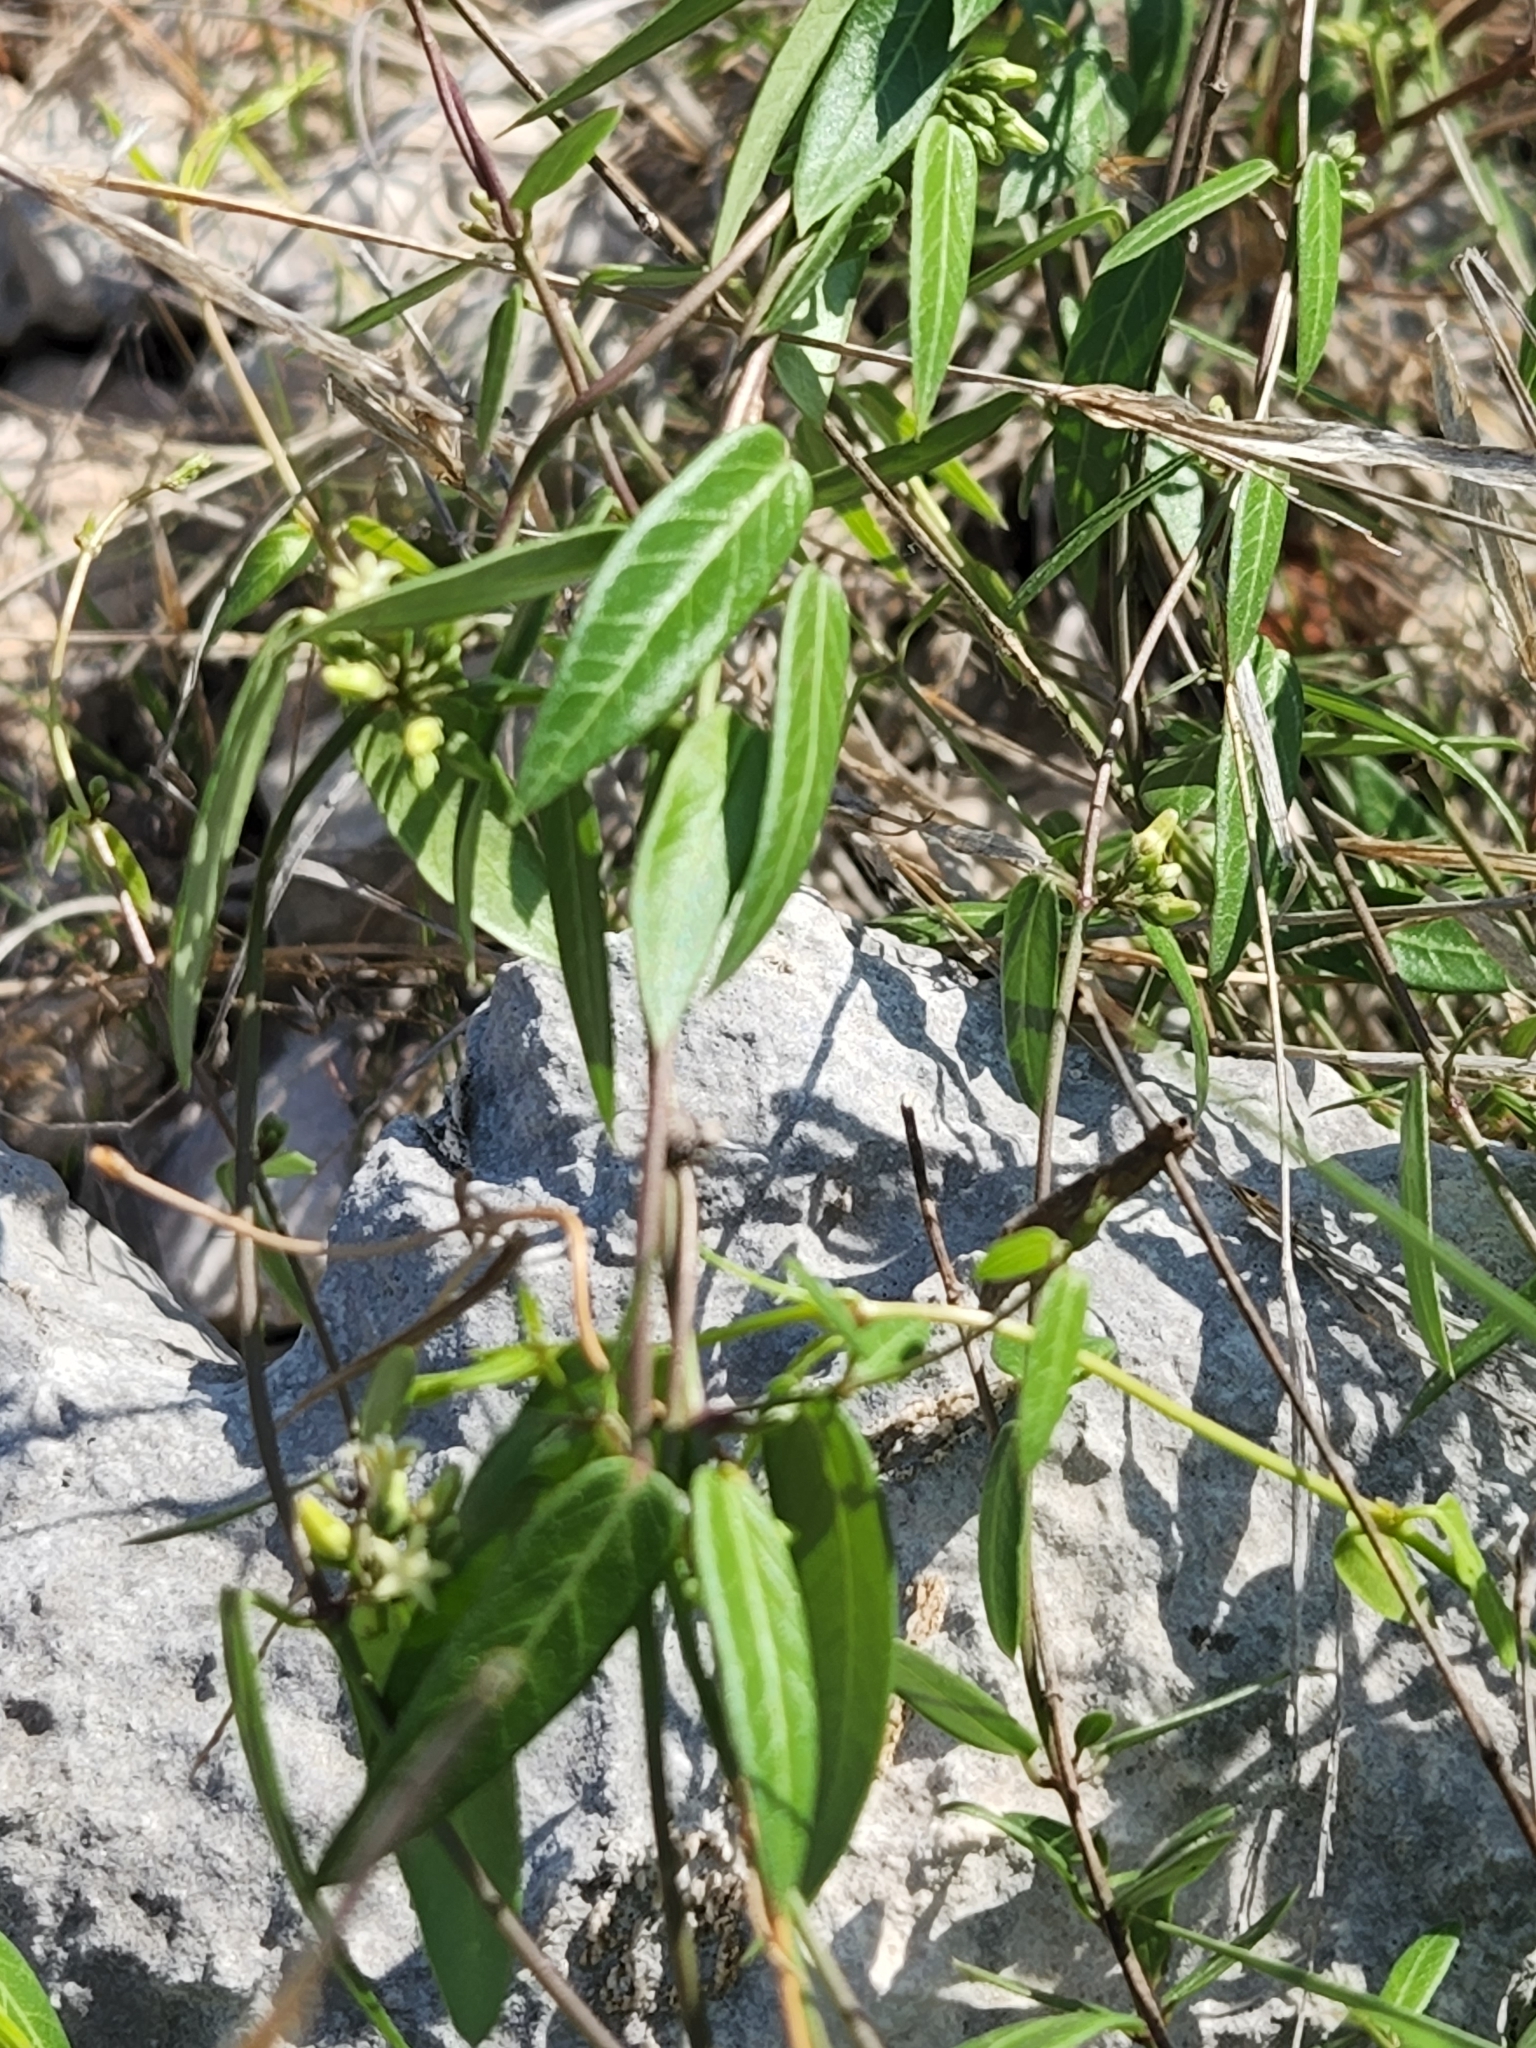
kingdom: Plantae
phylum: Tracheophyta
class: Magnoliopsida
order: Gentianales
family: Apocynaceae
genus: Metastelma
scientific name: Metastelma barbigerum
